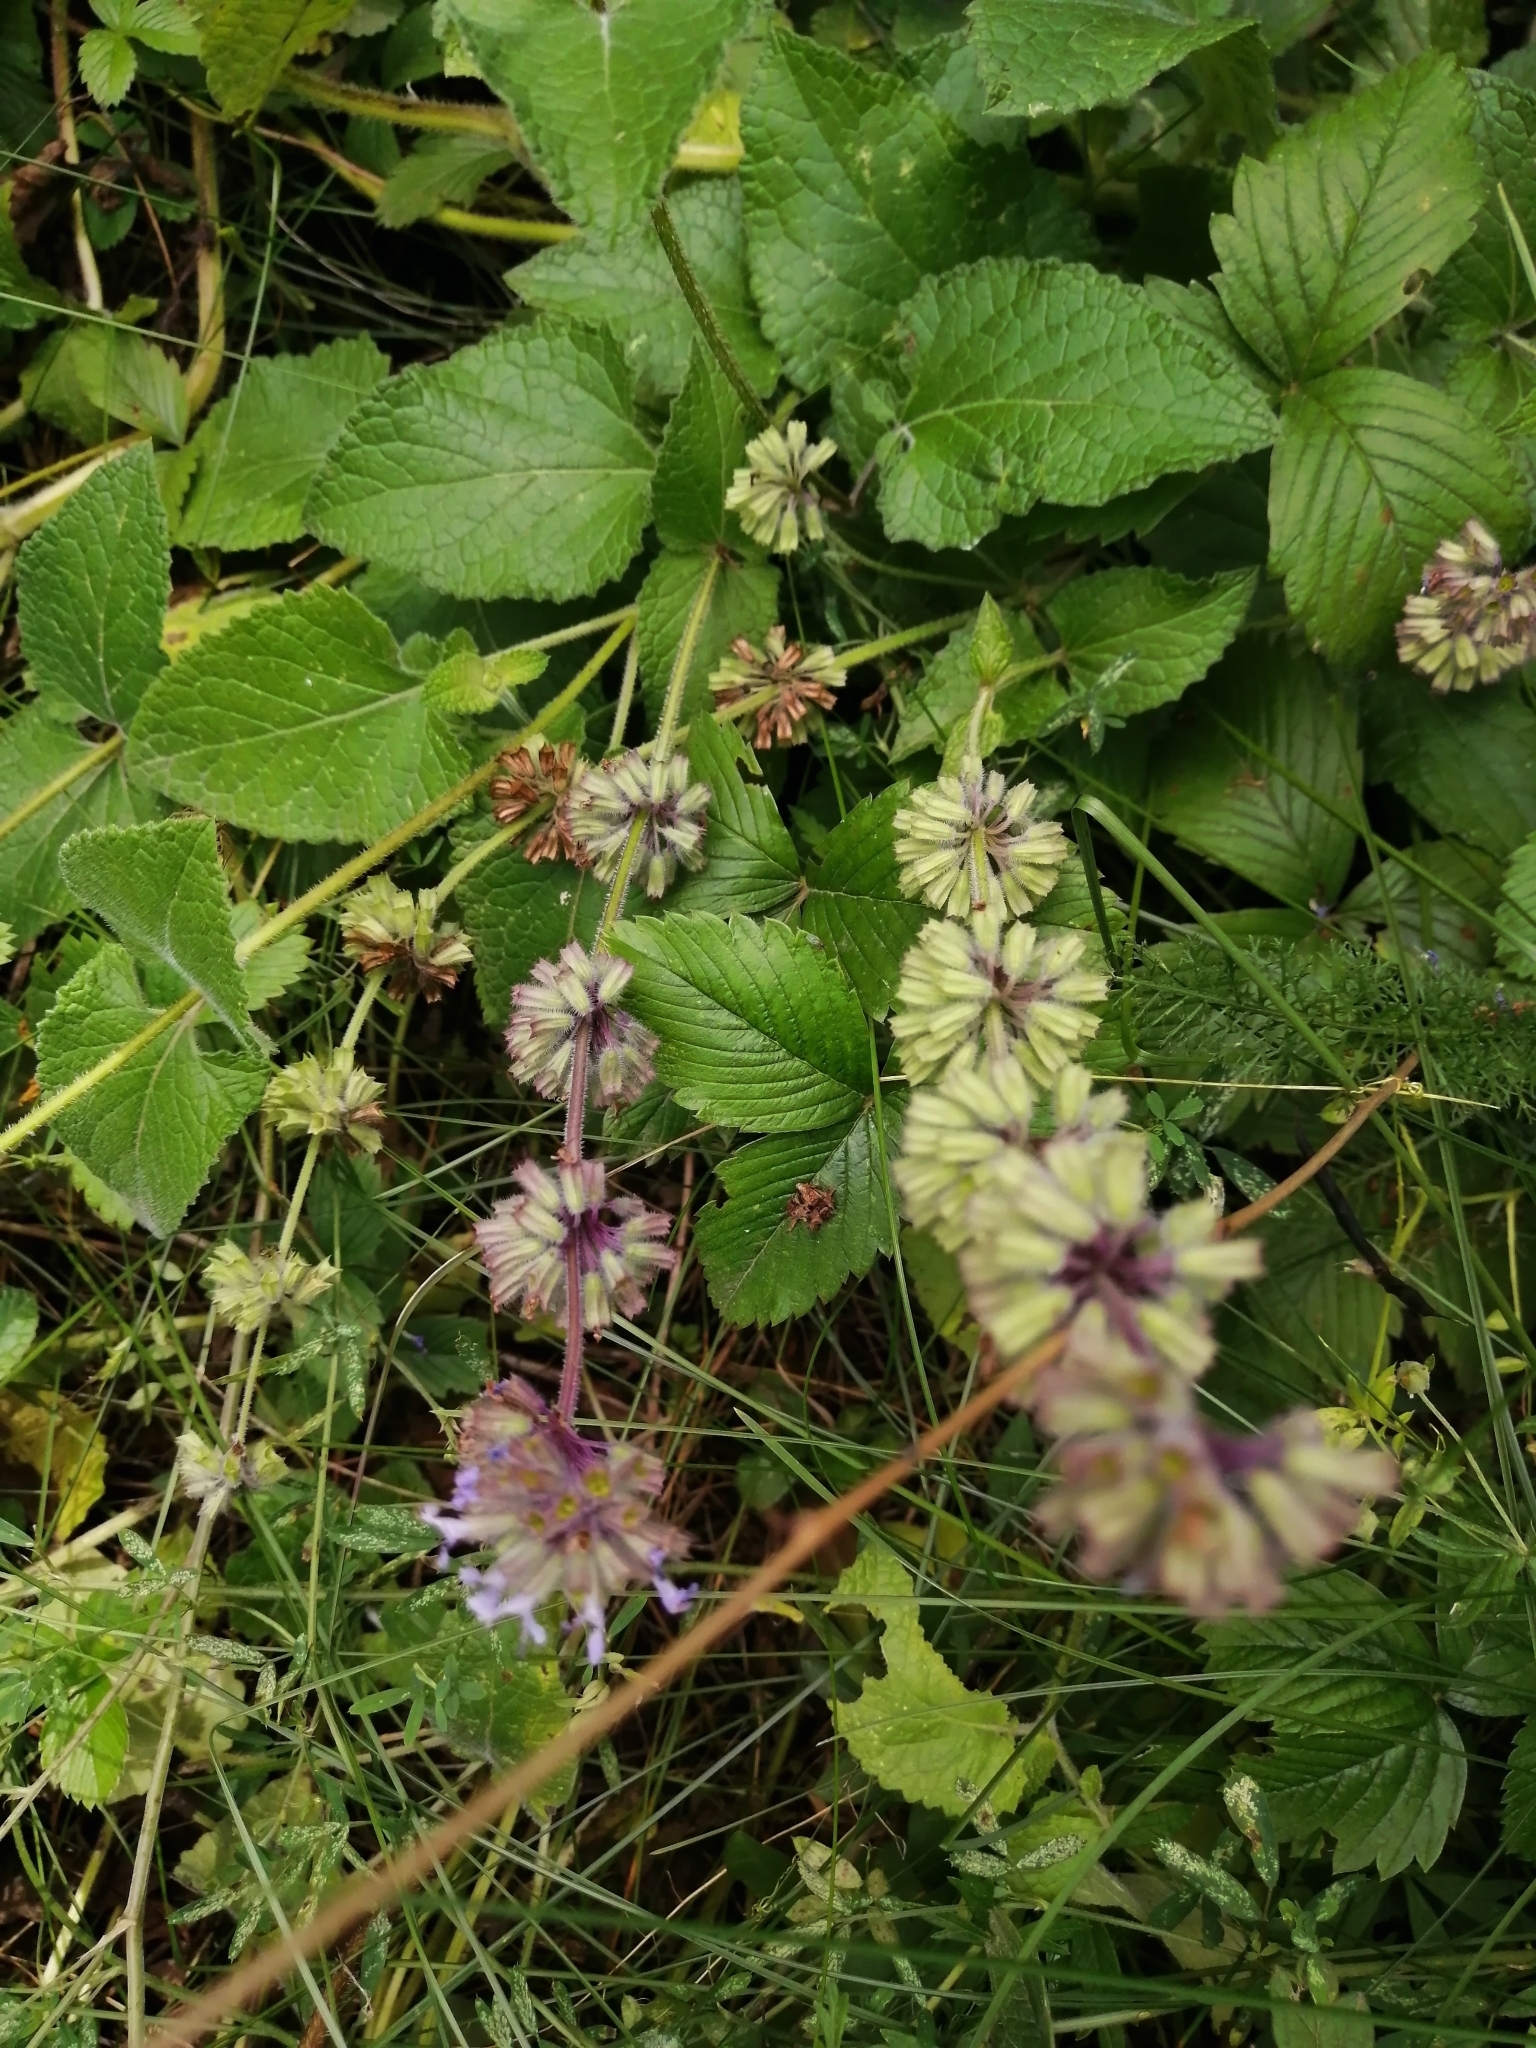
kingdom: Plantae
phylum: Tracheophyta
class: Magnoliopsida
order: Lamiales
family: Lamiaceae
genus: Salvia
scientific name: Salvia verticillata
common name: Whorled clary
